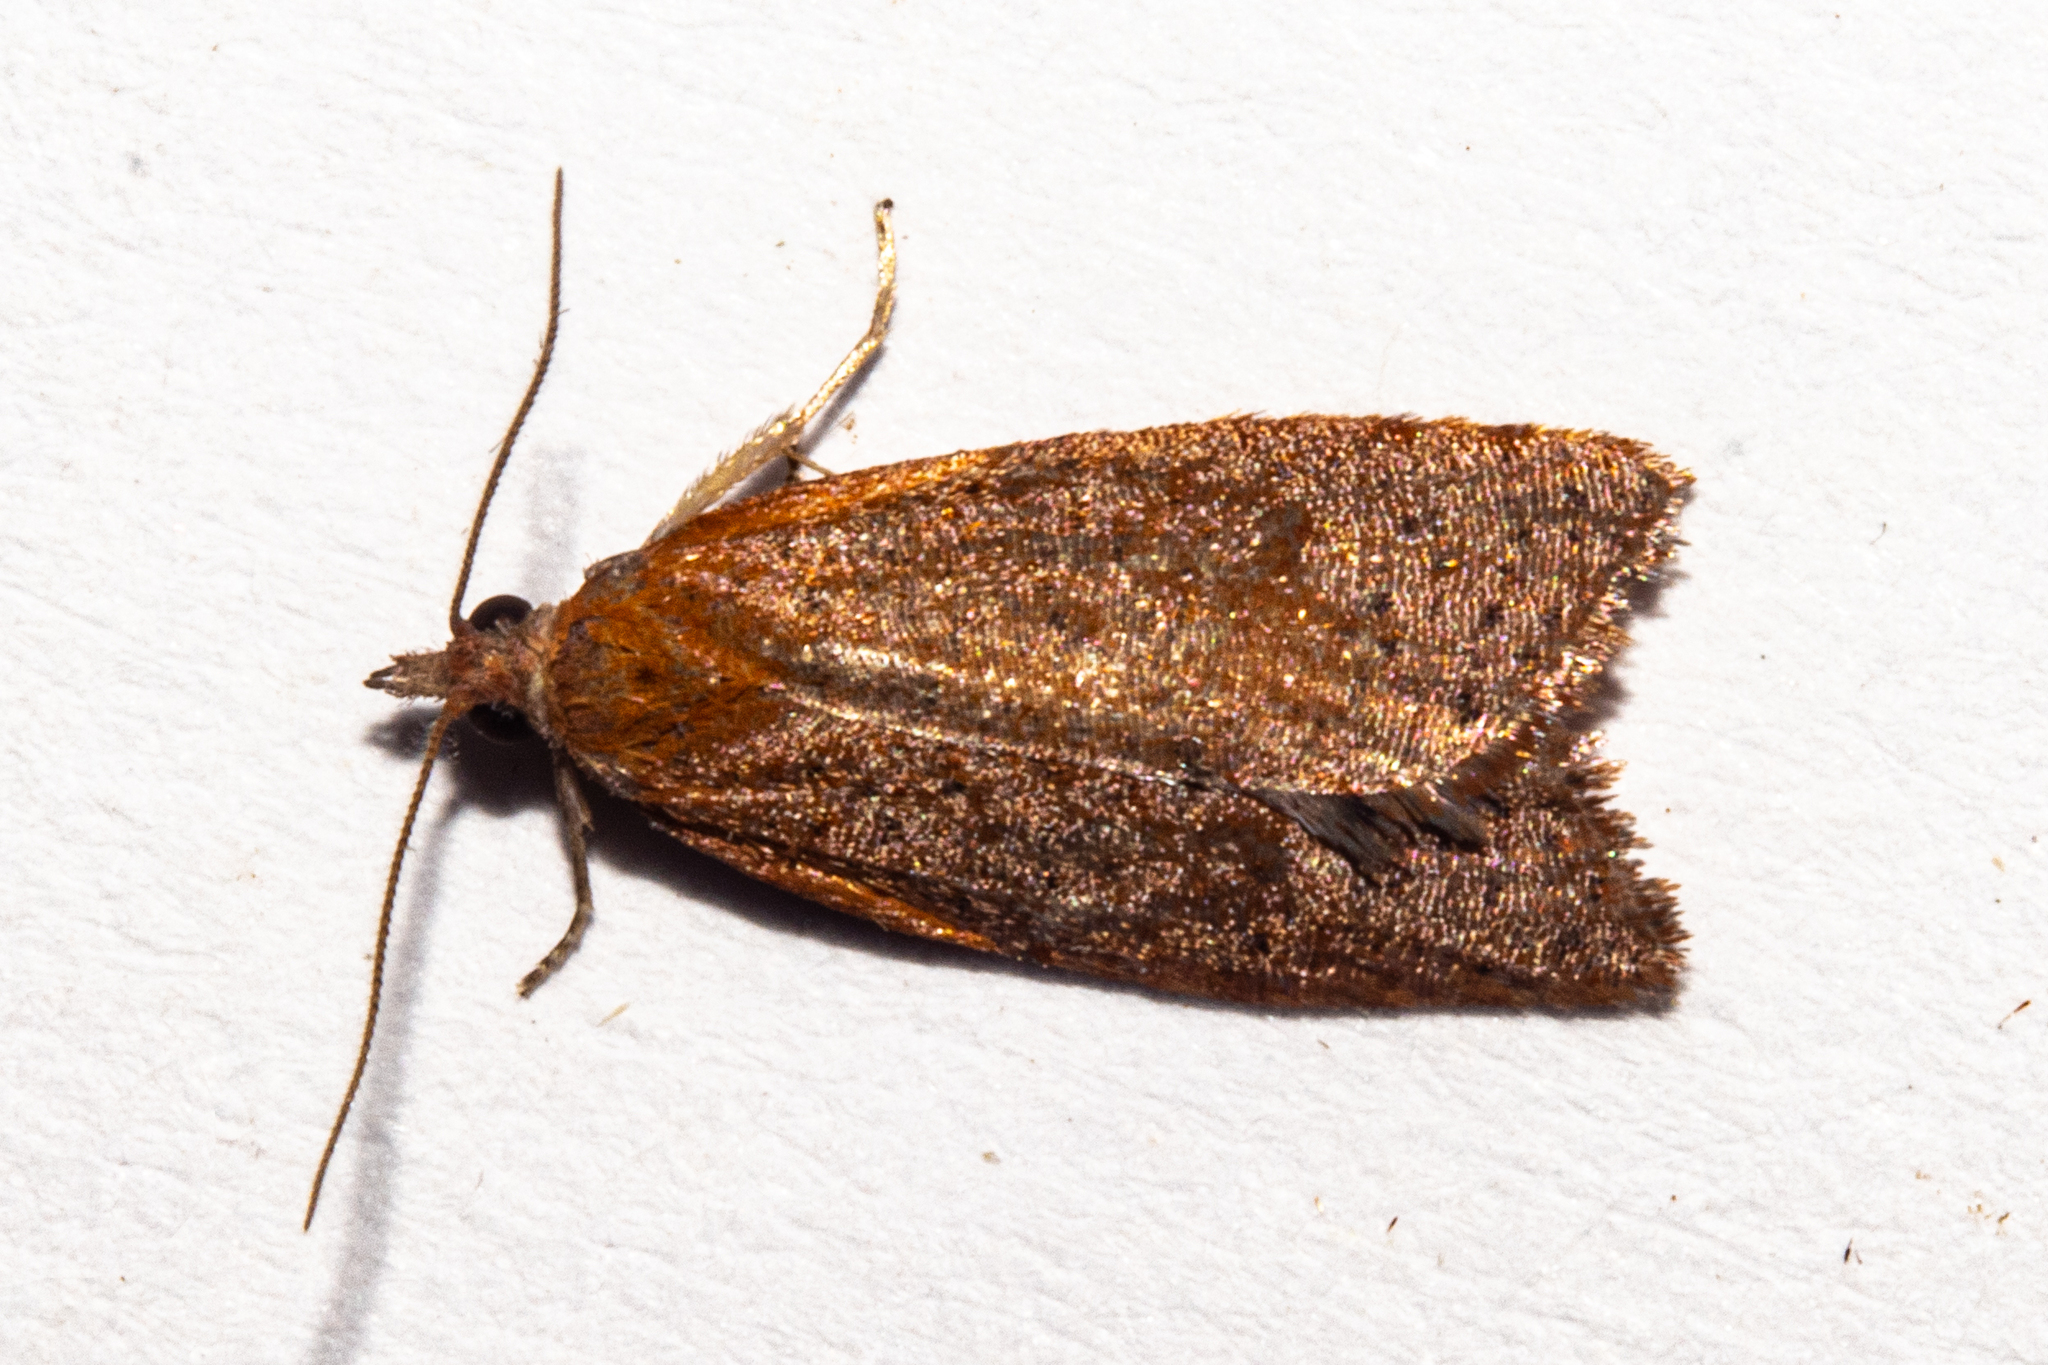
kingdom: Animalia
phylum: Arthropoda
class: Insecta
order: Lepidoptera
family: Tortricidae
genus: Planotortrix
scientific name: Planotortrix flammea
